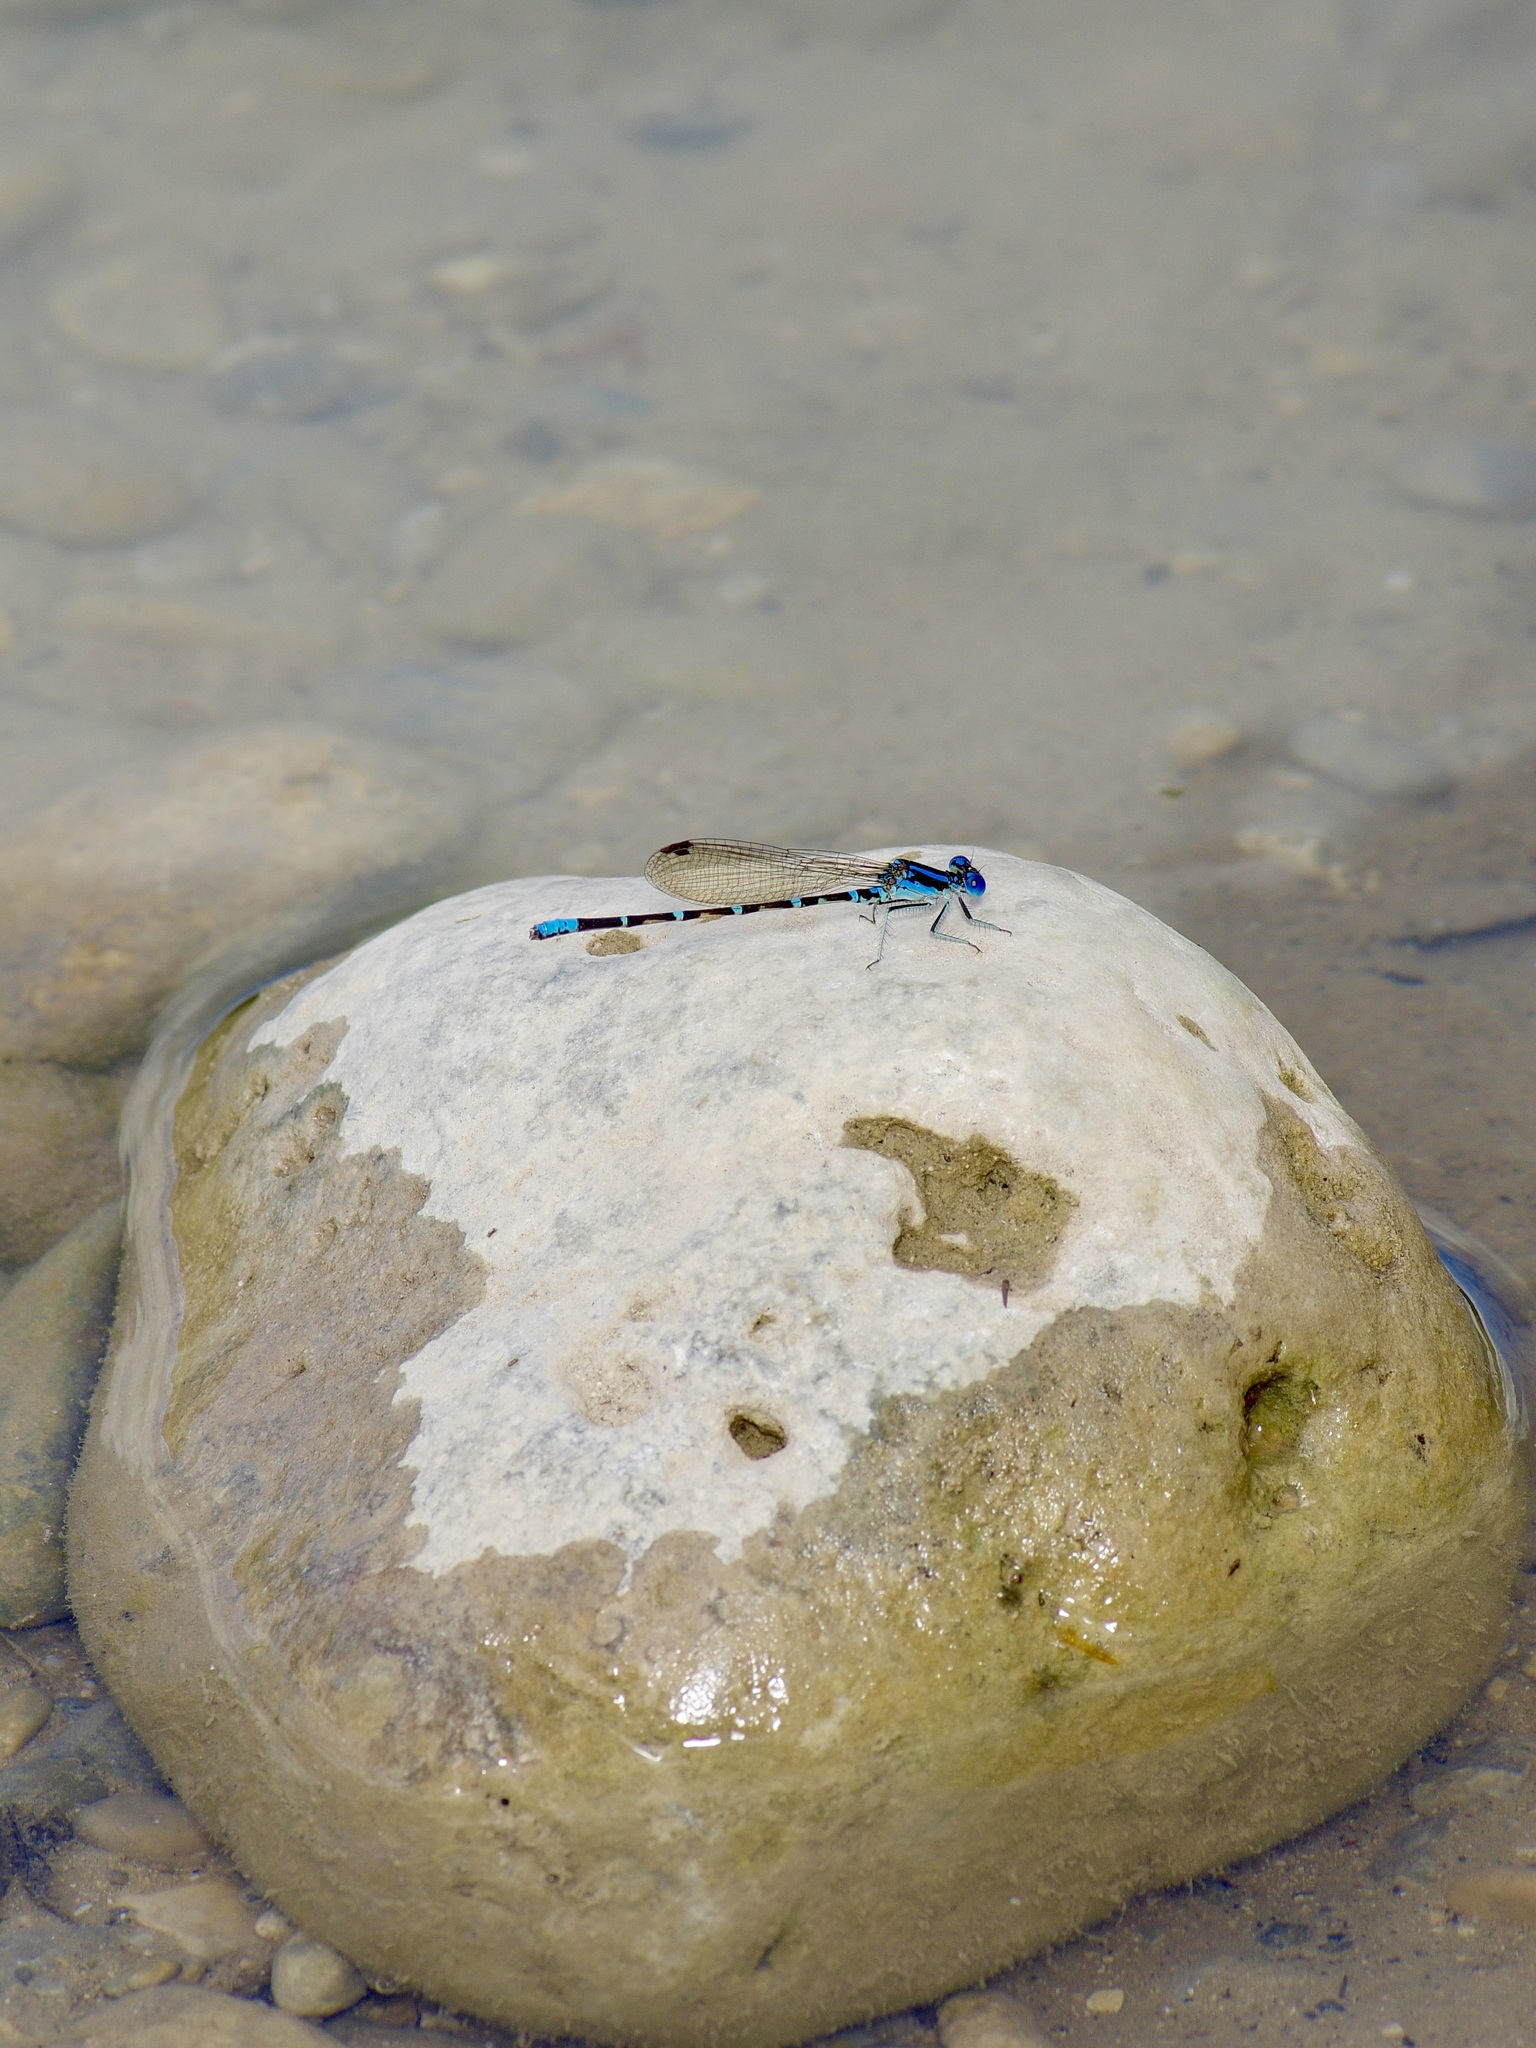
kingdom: Animalia
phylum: Arthropoda
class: Insecta
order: Odonata
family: Coenagrionidae
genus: Argia
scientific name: Argia sedula
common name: Blue-ringed dancer
